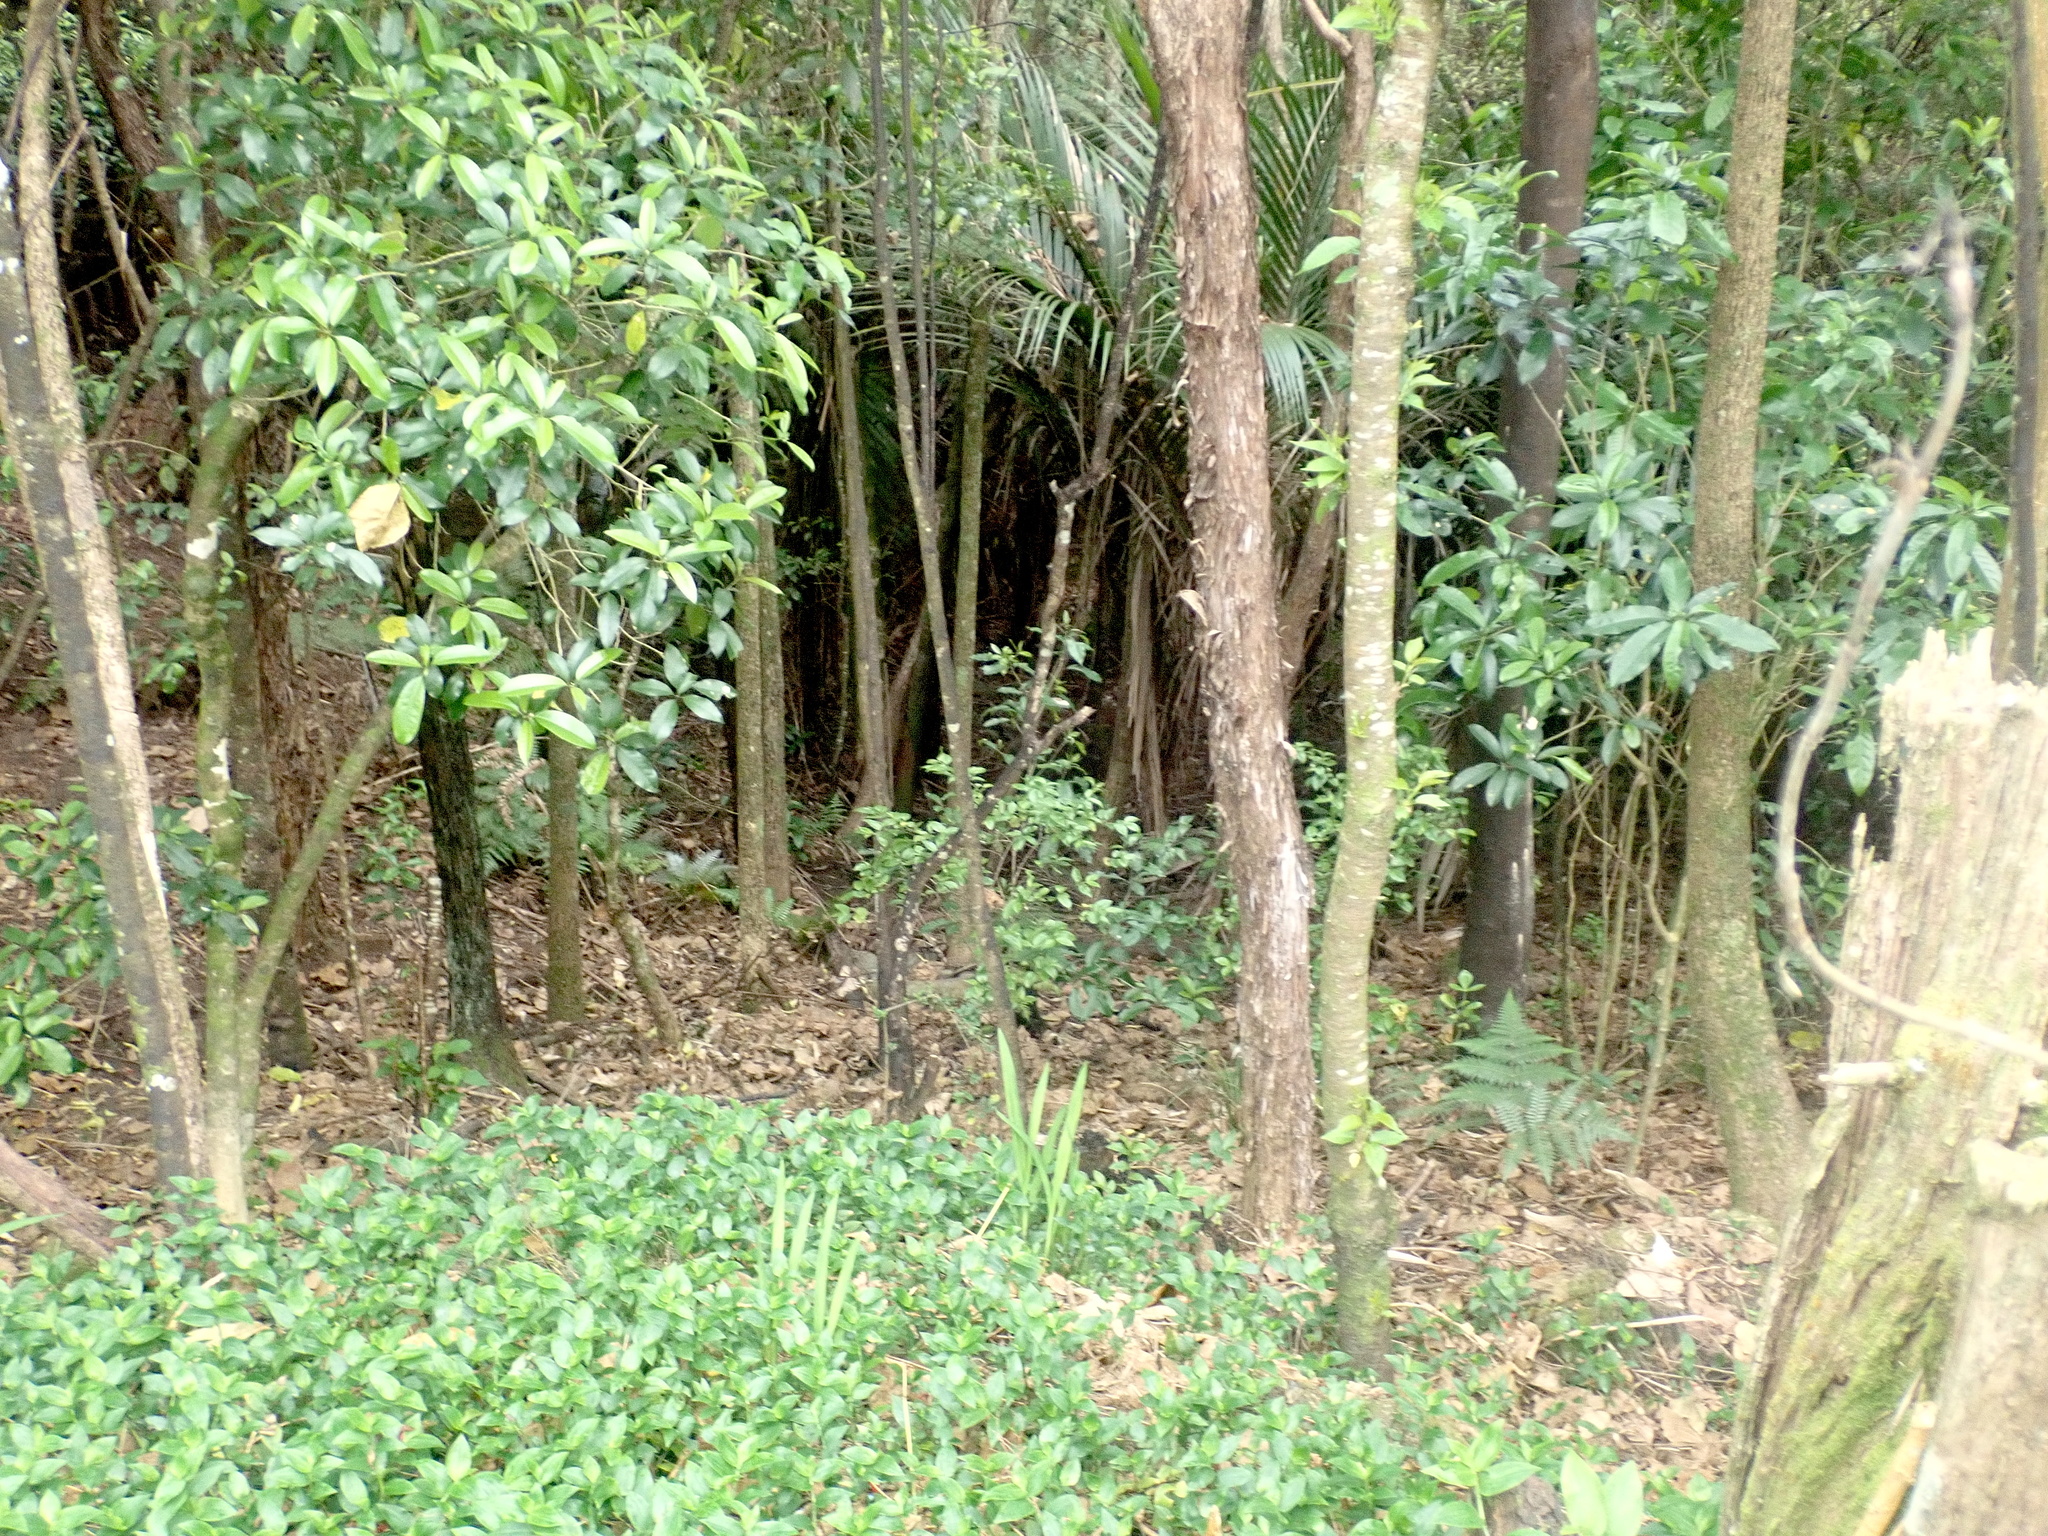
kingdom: Plantae
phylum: Tracheophyta
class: Liliopsida
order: Arecales
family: Arecaceae
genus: Rhopalostylis
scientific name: Rhopalostylis sapida
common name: Feather-duster palm
